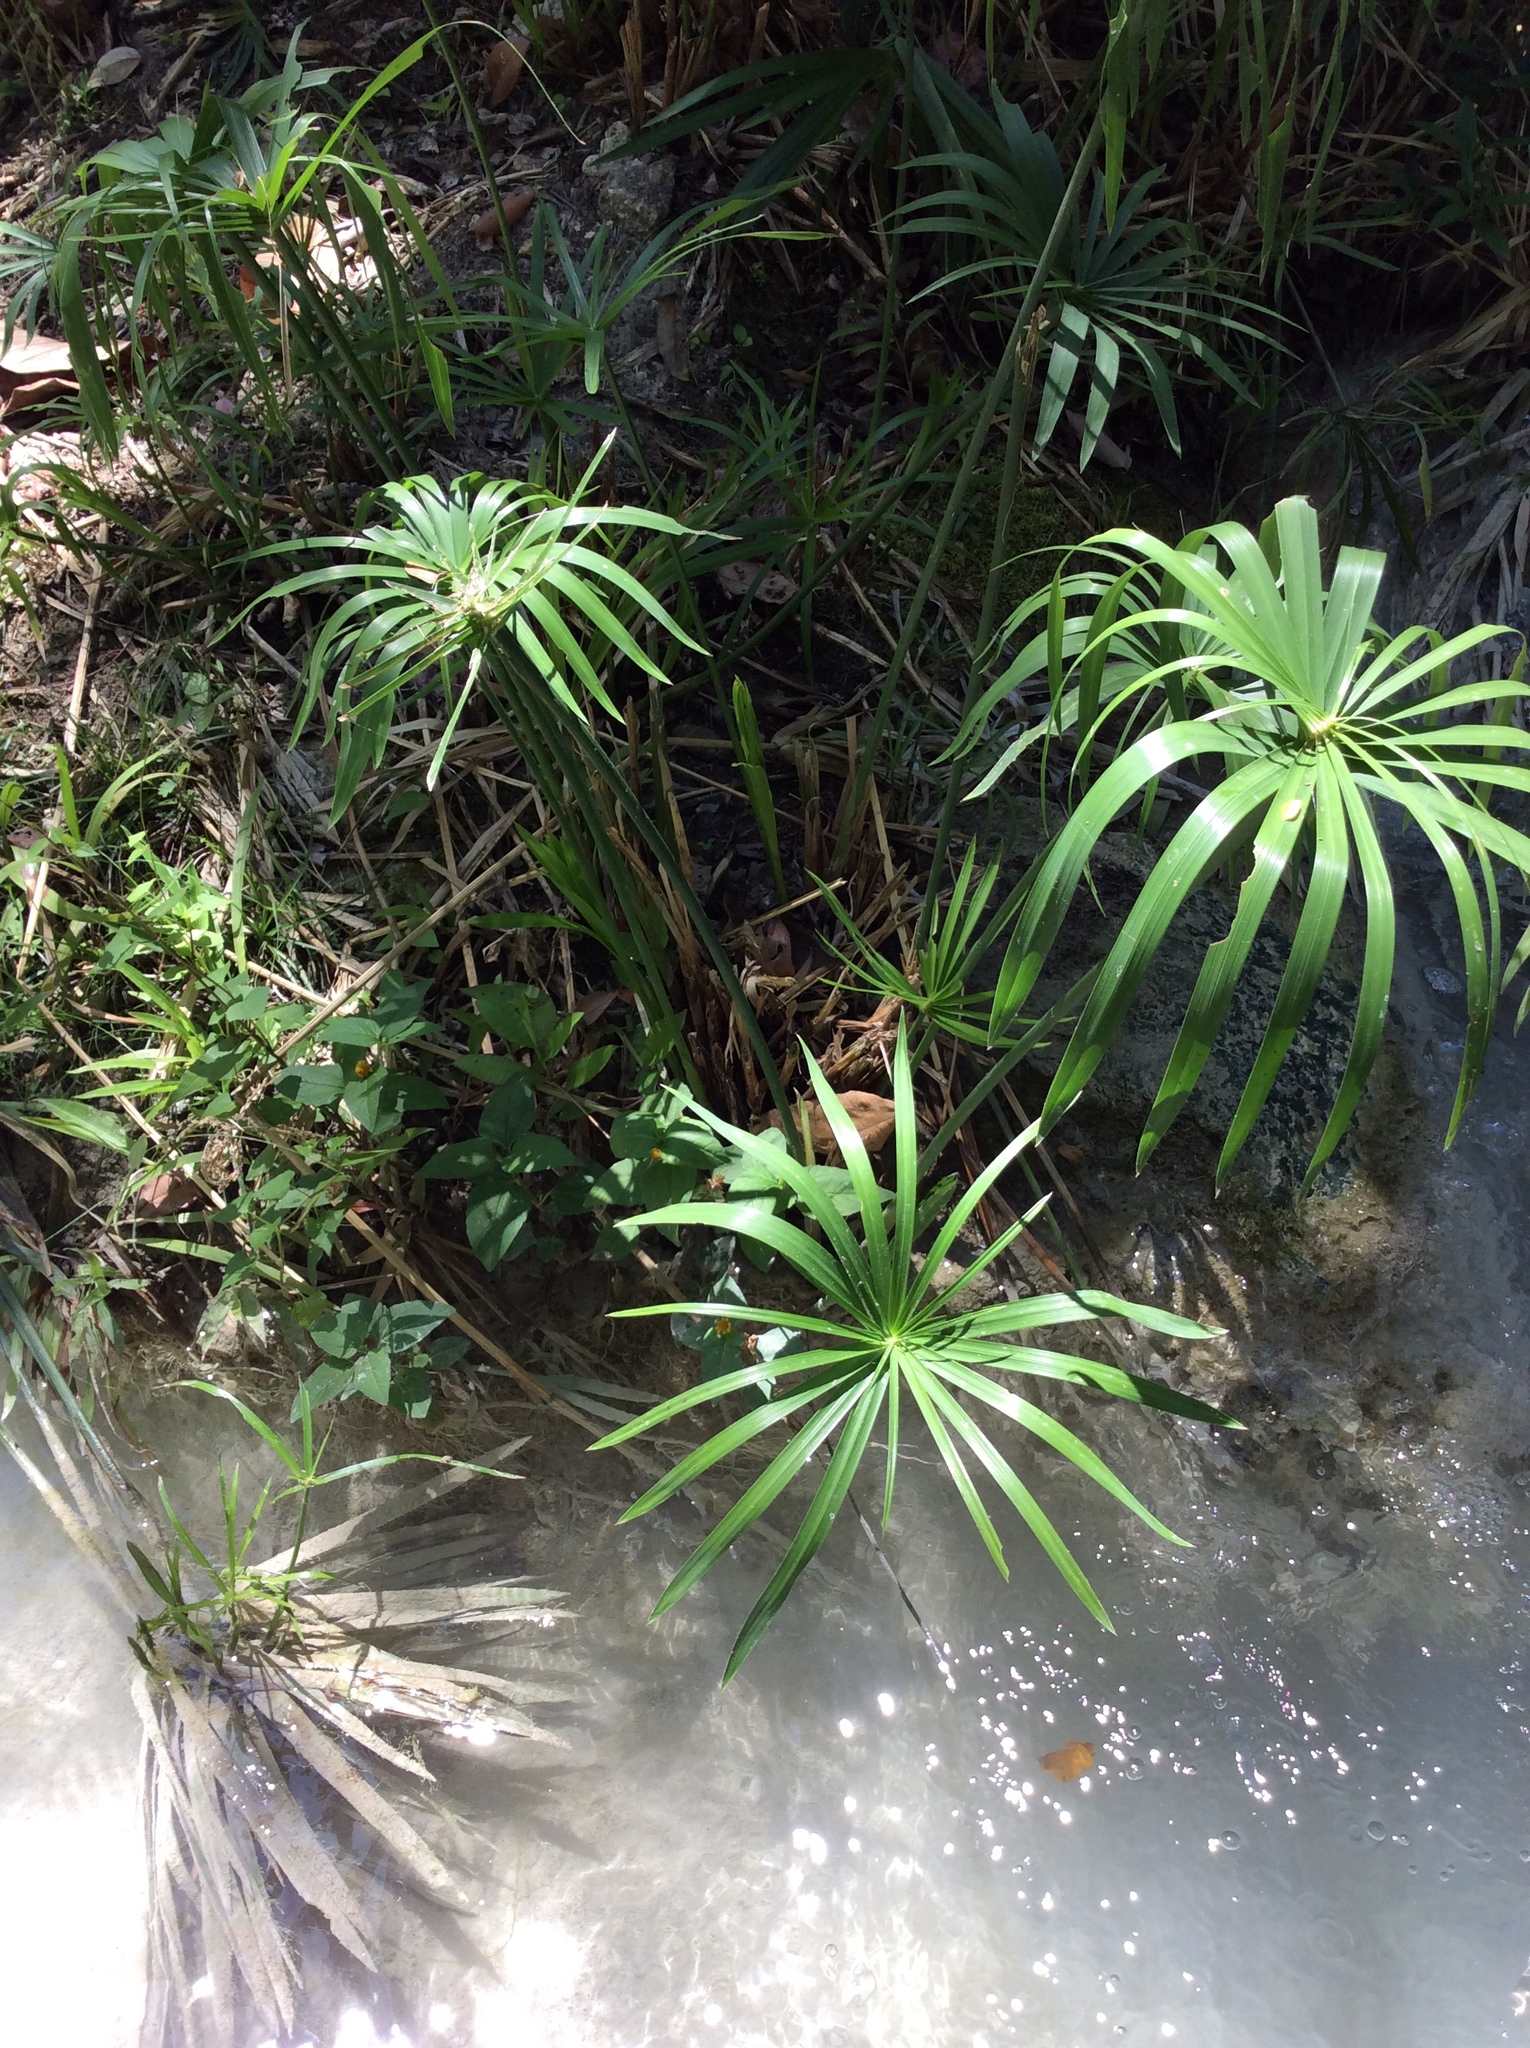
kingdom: Plantae
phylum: Tracheophyta
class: Liliopsida
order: Poales
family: Cyperaceae
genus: Cyperus
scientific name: Cyperus alternifolius
